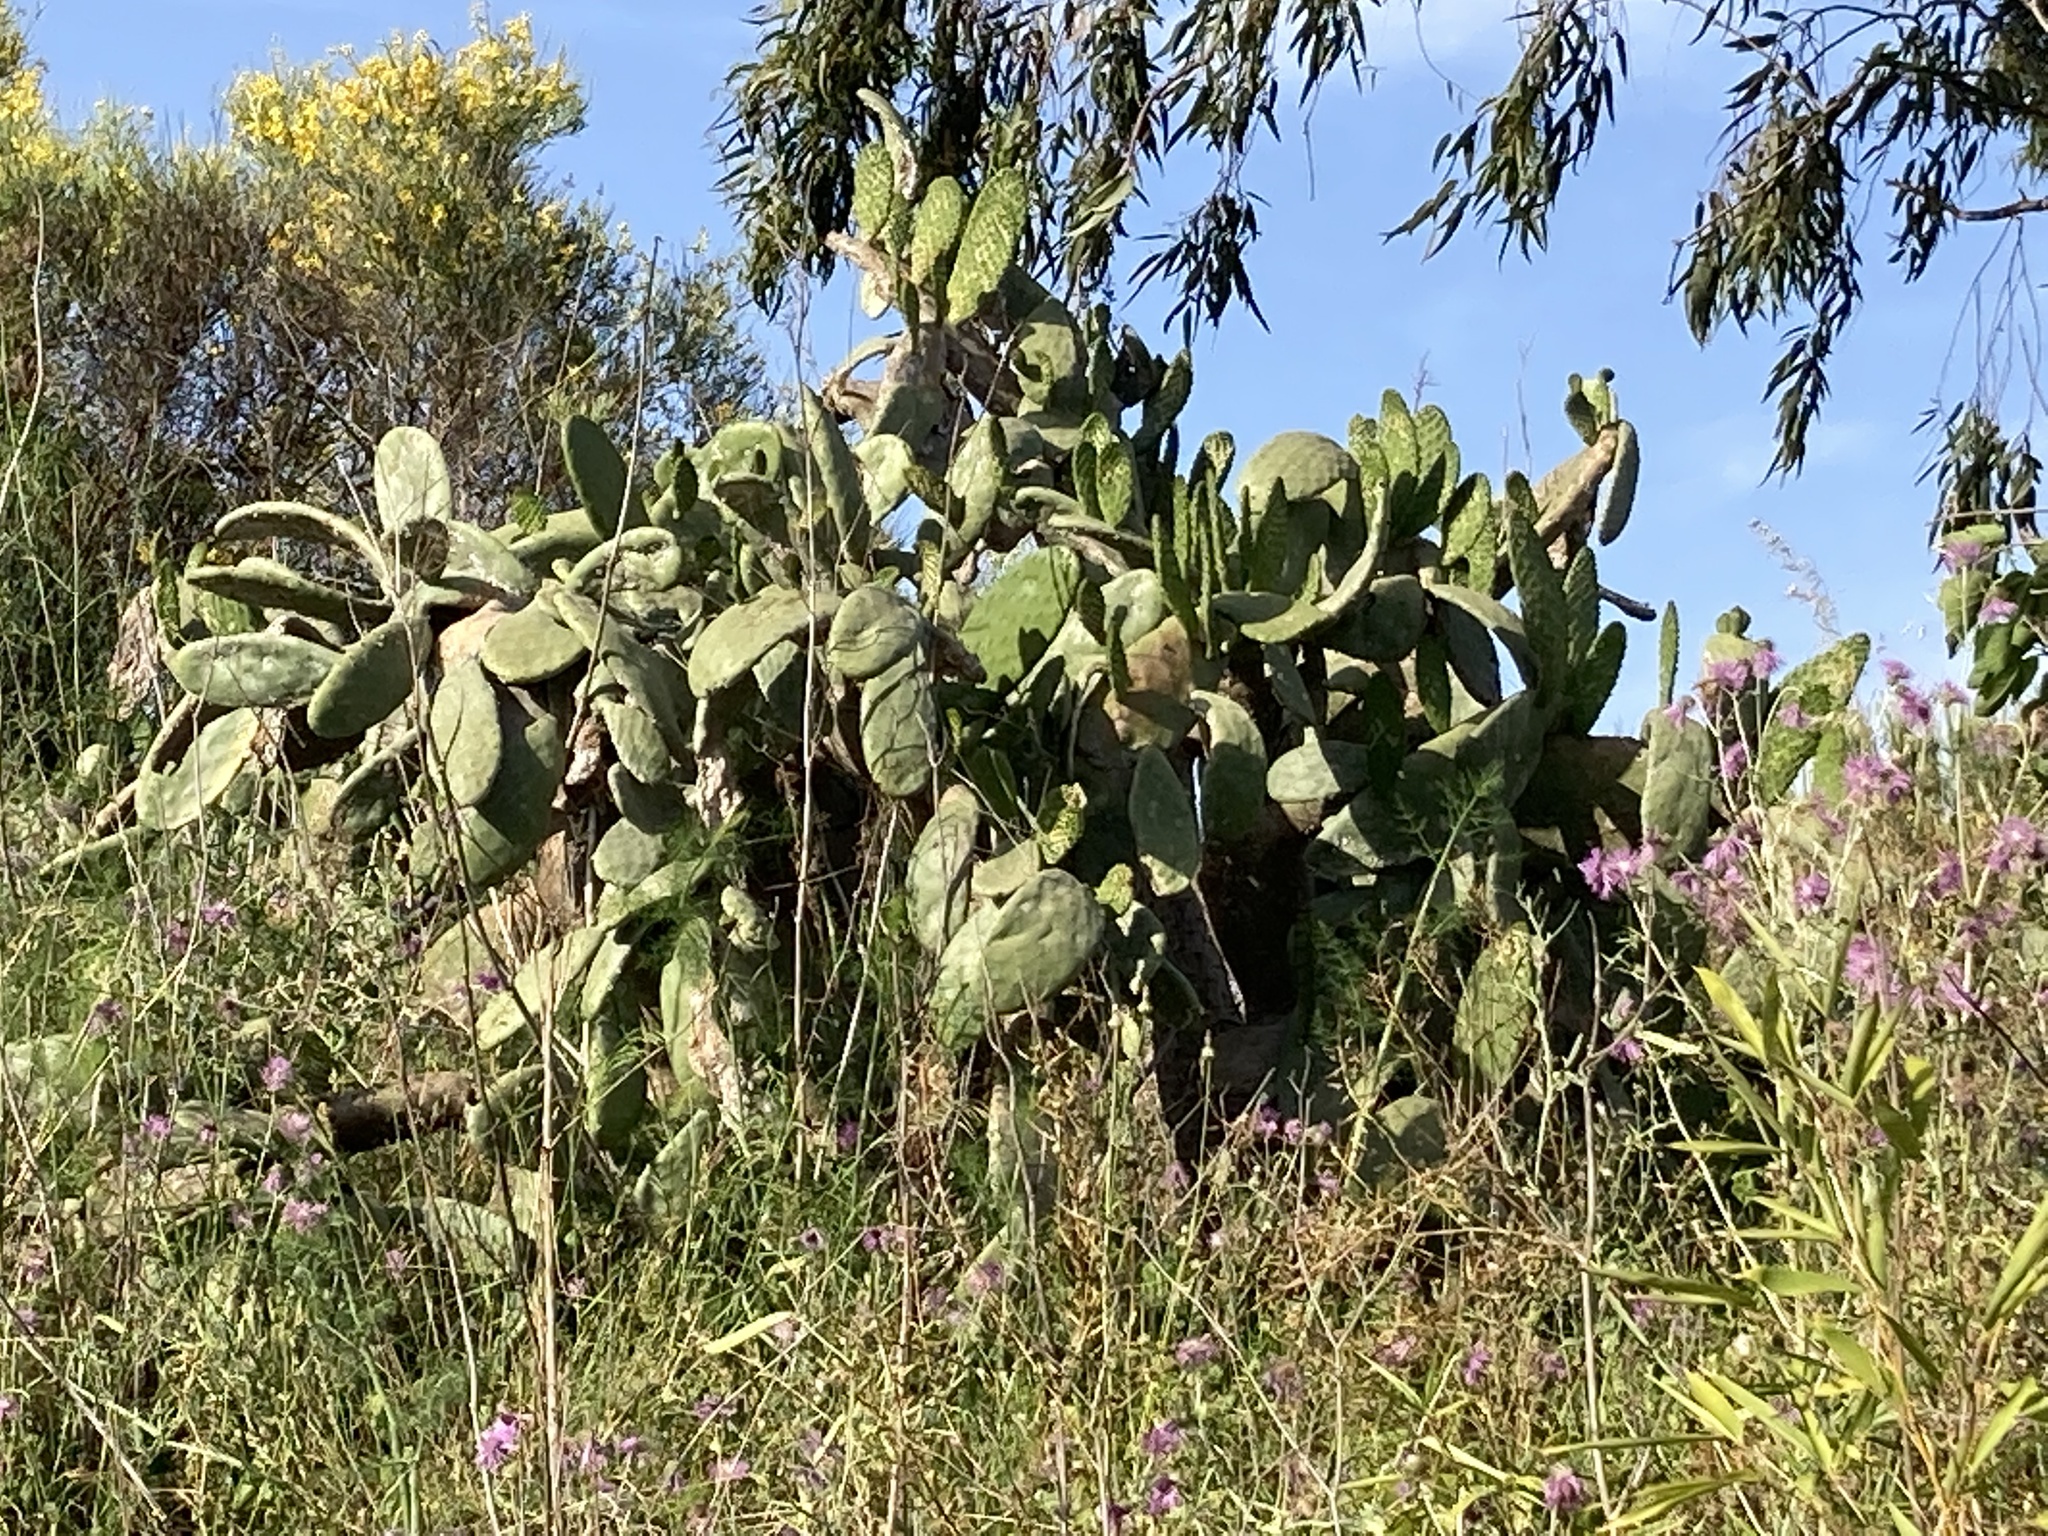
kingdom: Plantae
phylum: Tracheophyta
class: Magnoliopsida
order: Caryophyllales
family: Cactaceae
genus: Opuntia
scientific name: Opuntia ficus-indica
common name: Barbary fig
